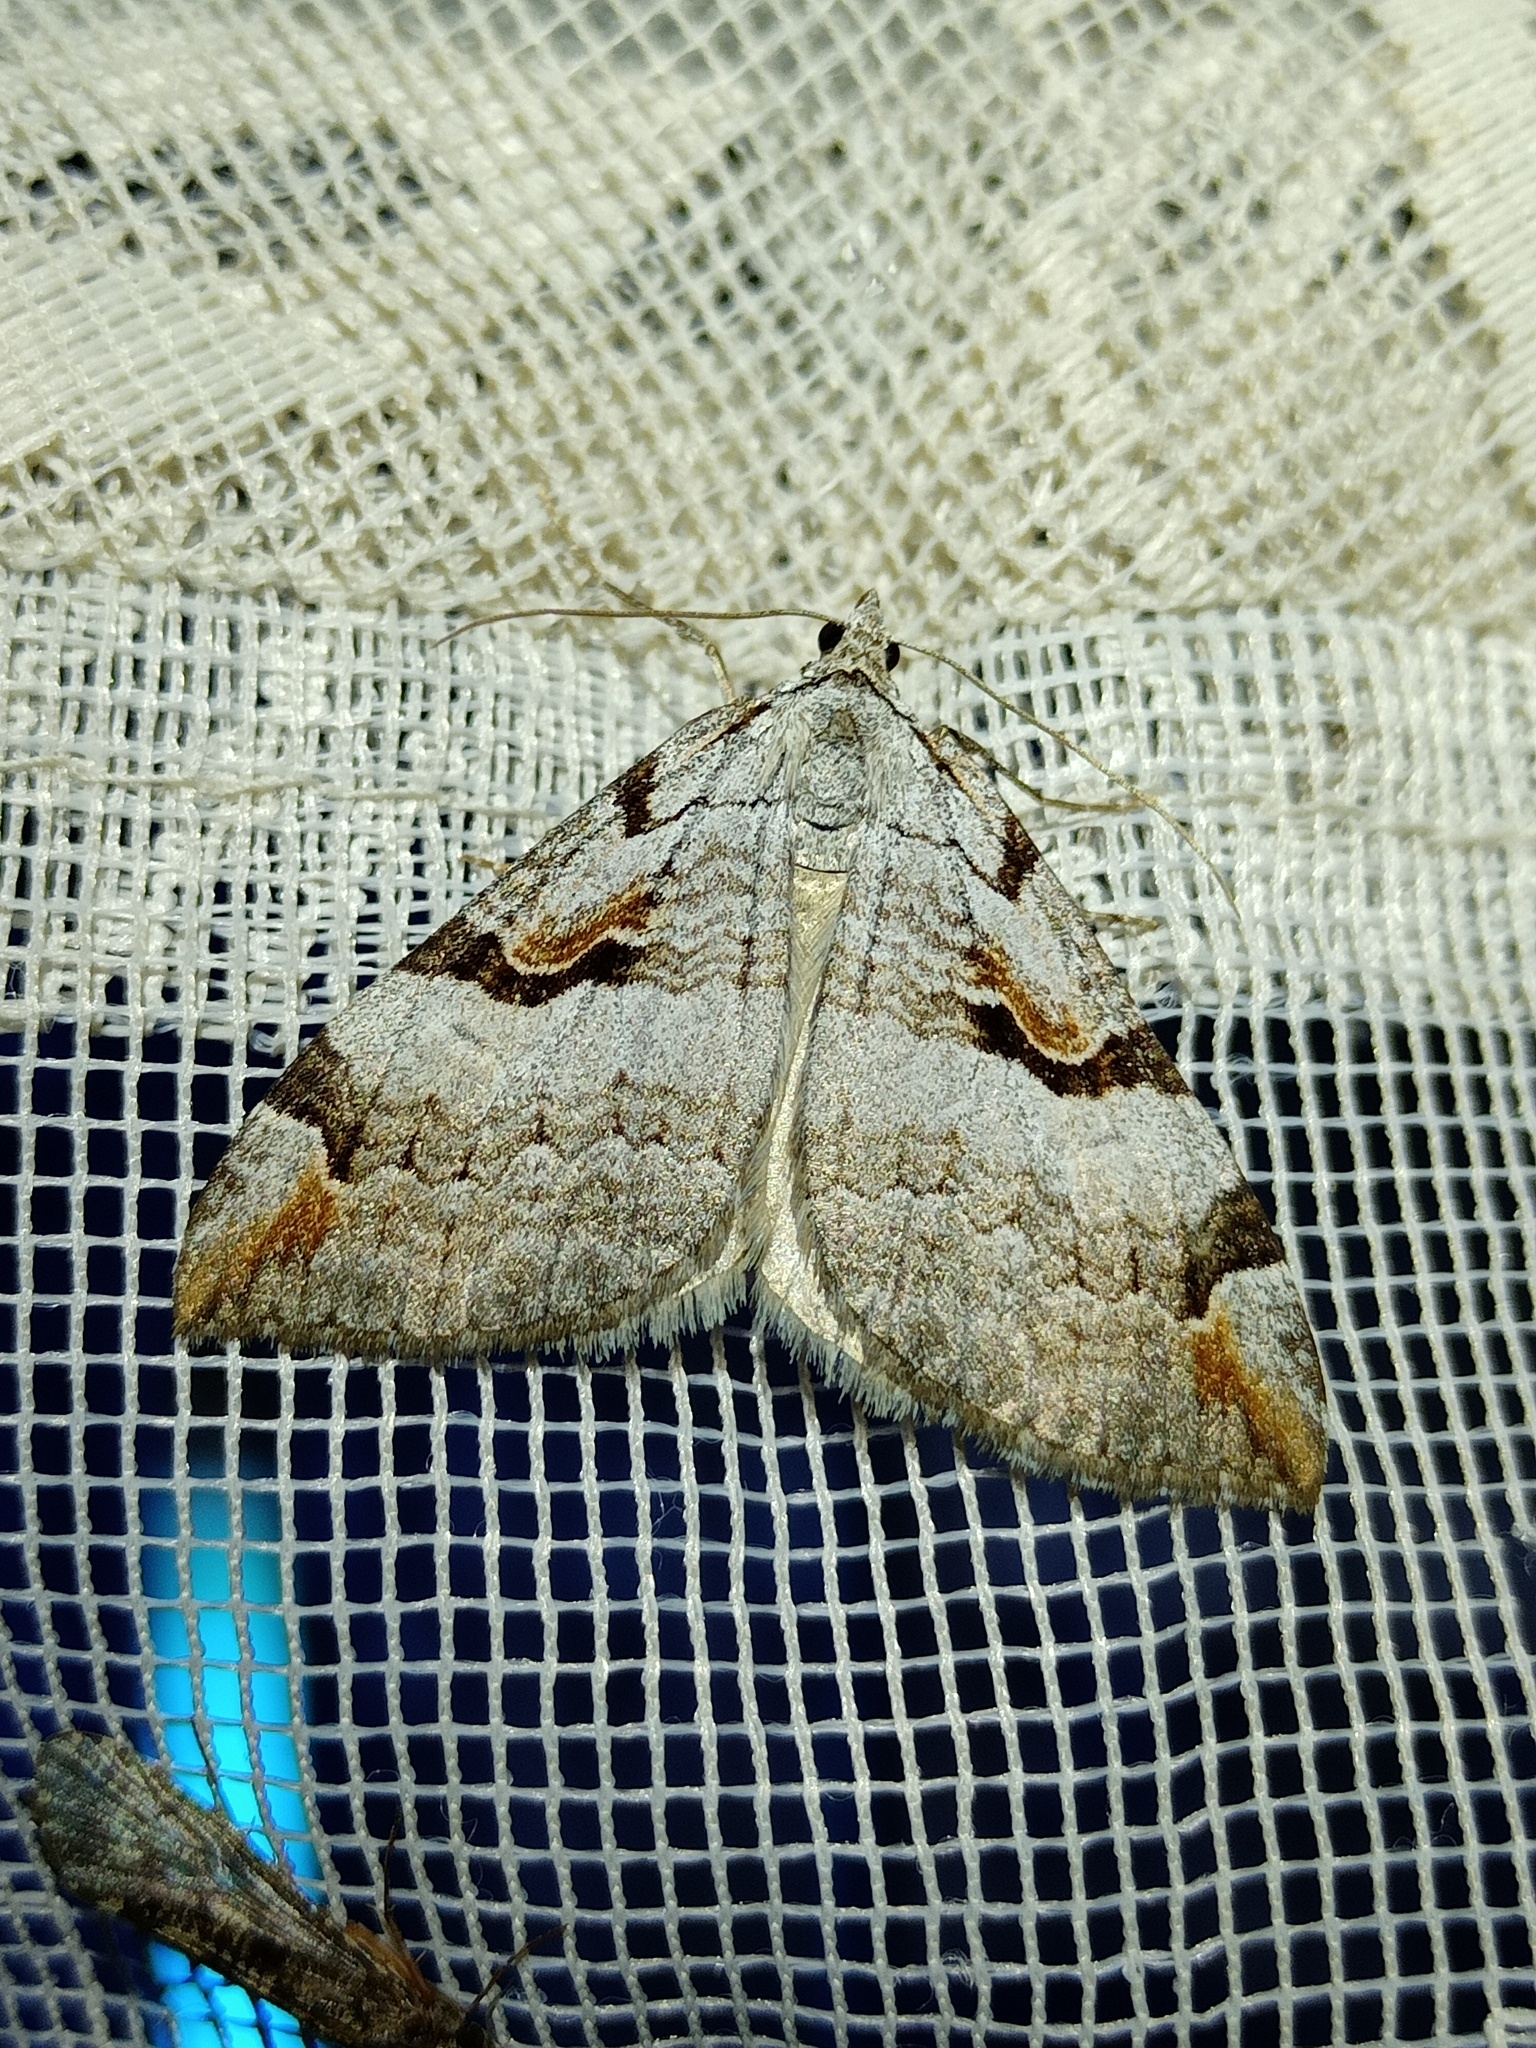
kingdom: Animalia
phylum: Arthropoda
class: Insecta
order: Lepidoptera
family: Geometridae
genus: Aplocera
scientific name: Aplocera praeformata
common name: Purple treble-bar
